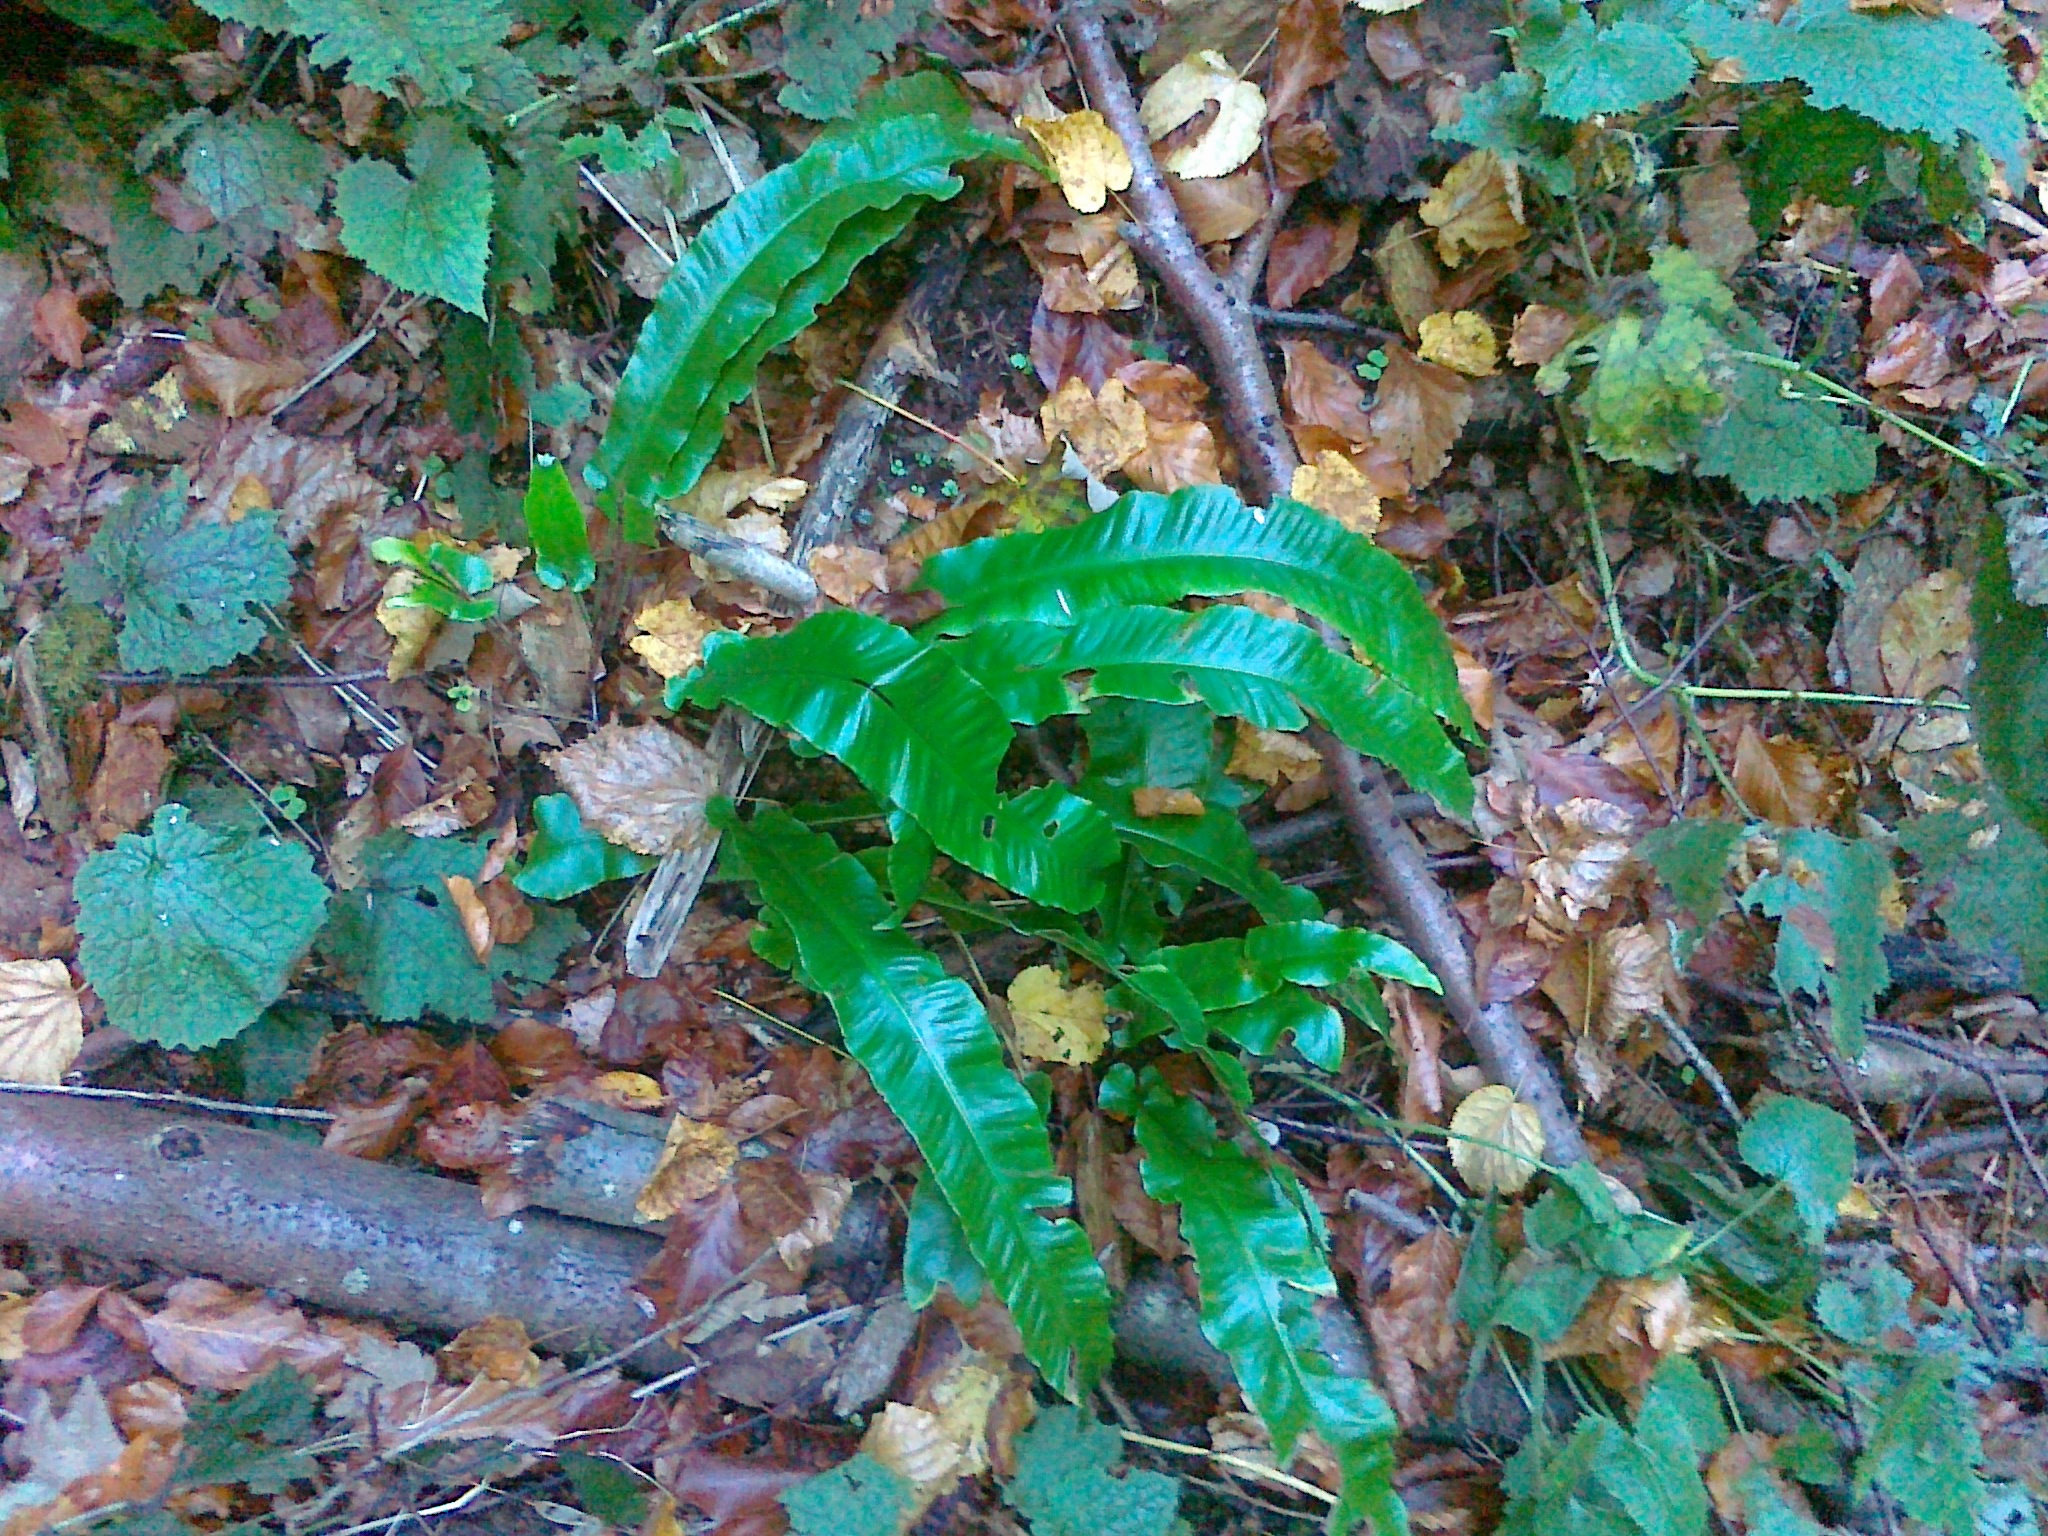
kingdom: Plantae
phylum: Tracheophyta
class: Polypodiopsida
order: Polypodiales
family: Aspleniaceae
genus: Asplenium
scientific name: Asplenium scolopendrium
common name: Hart's-tongue fern
